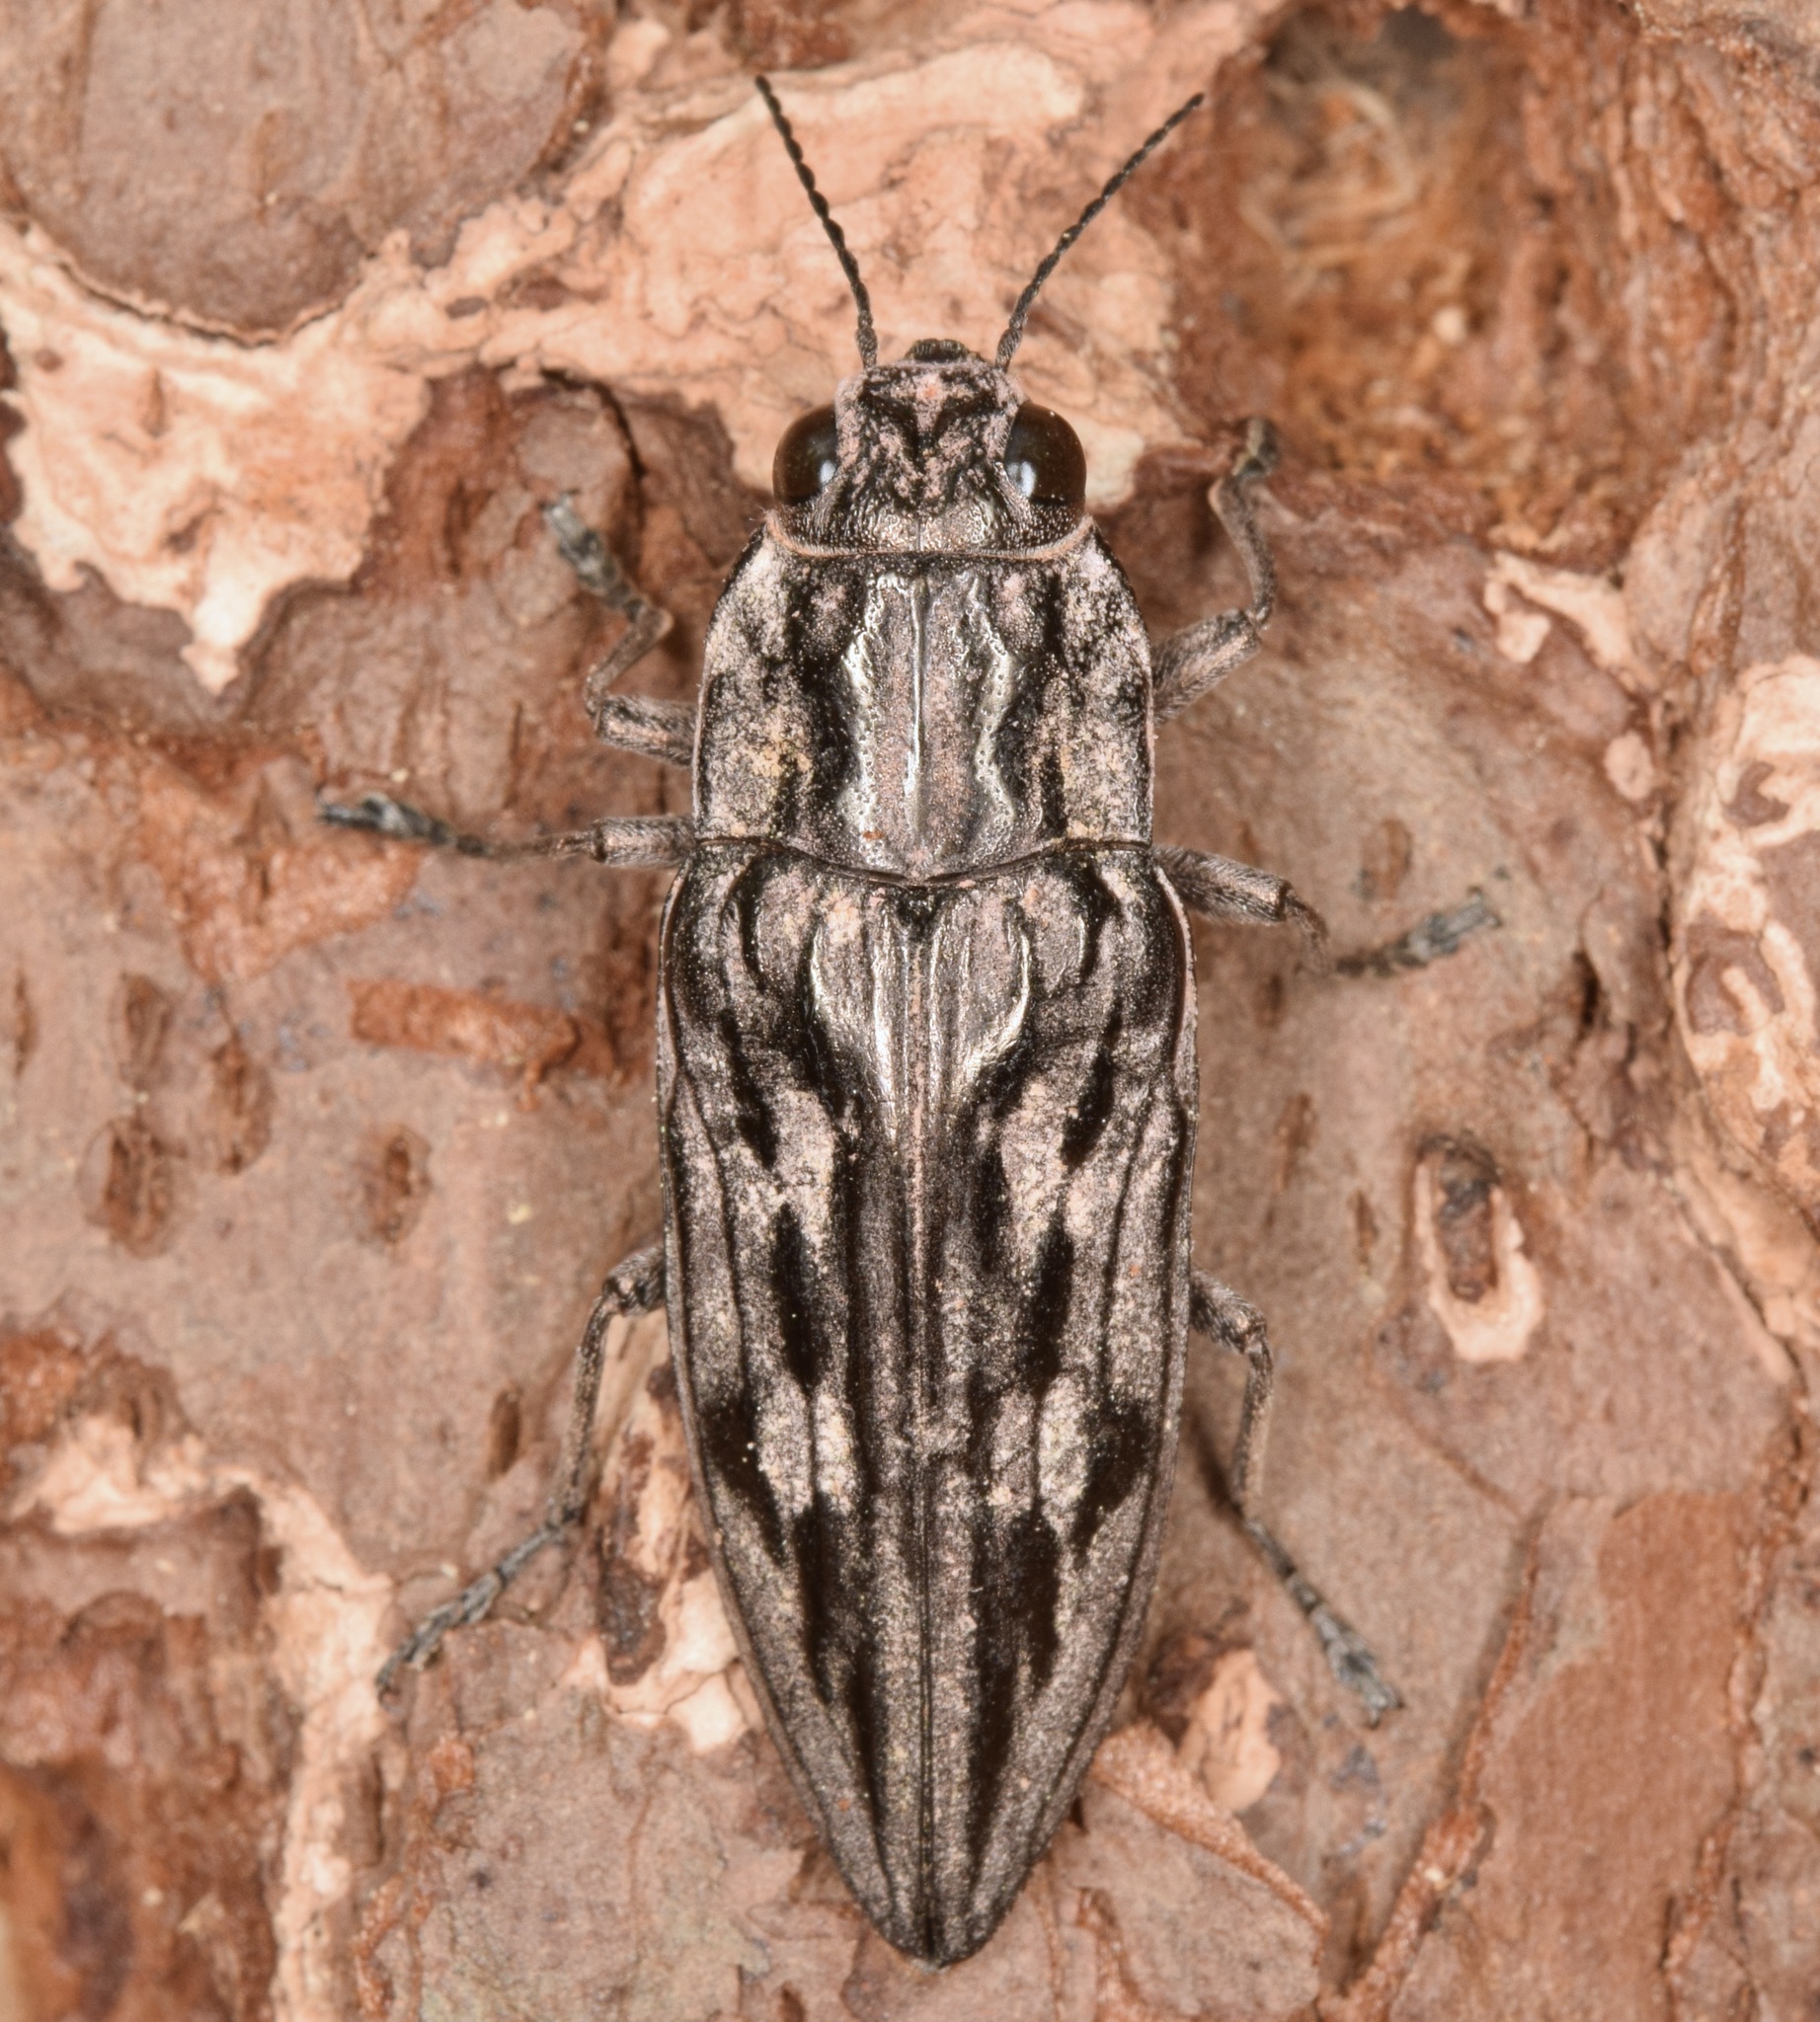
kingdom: Animalia
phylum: Arthropoda
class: Insecta
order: Coleoptera
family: Buprestidae
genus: Chalcophora
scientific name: Chalcophora virginiensis
